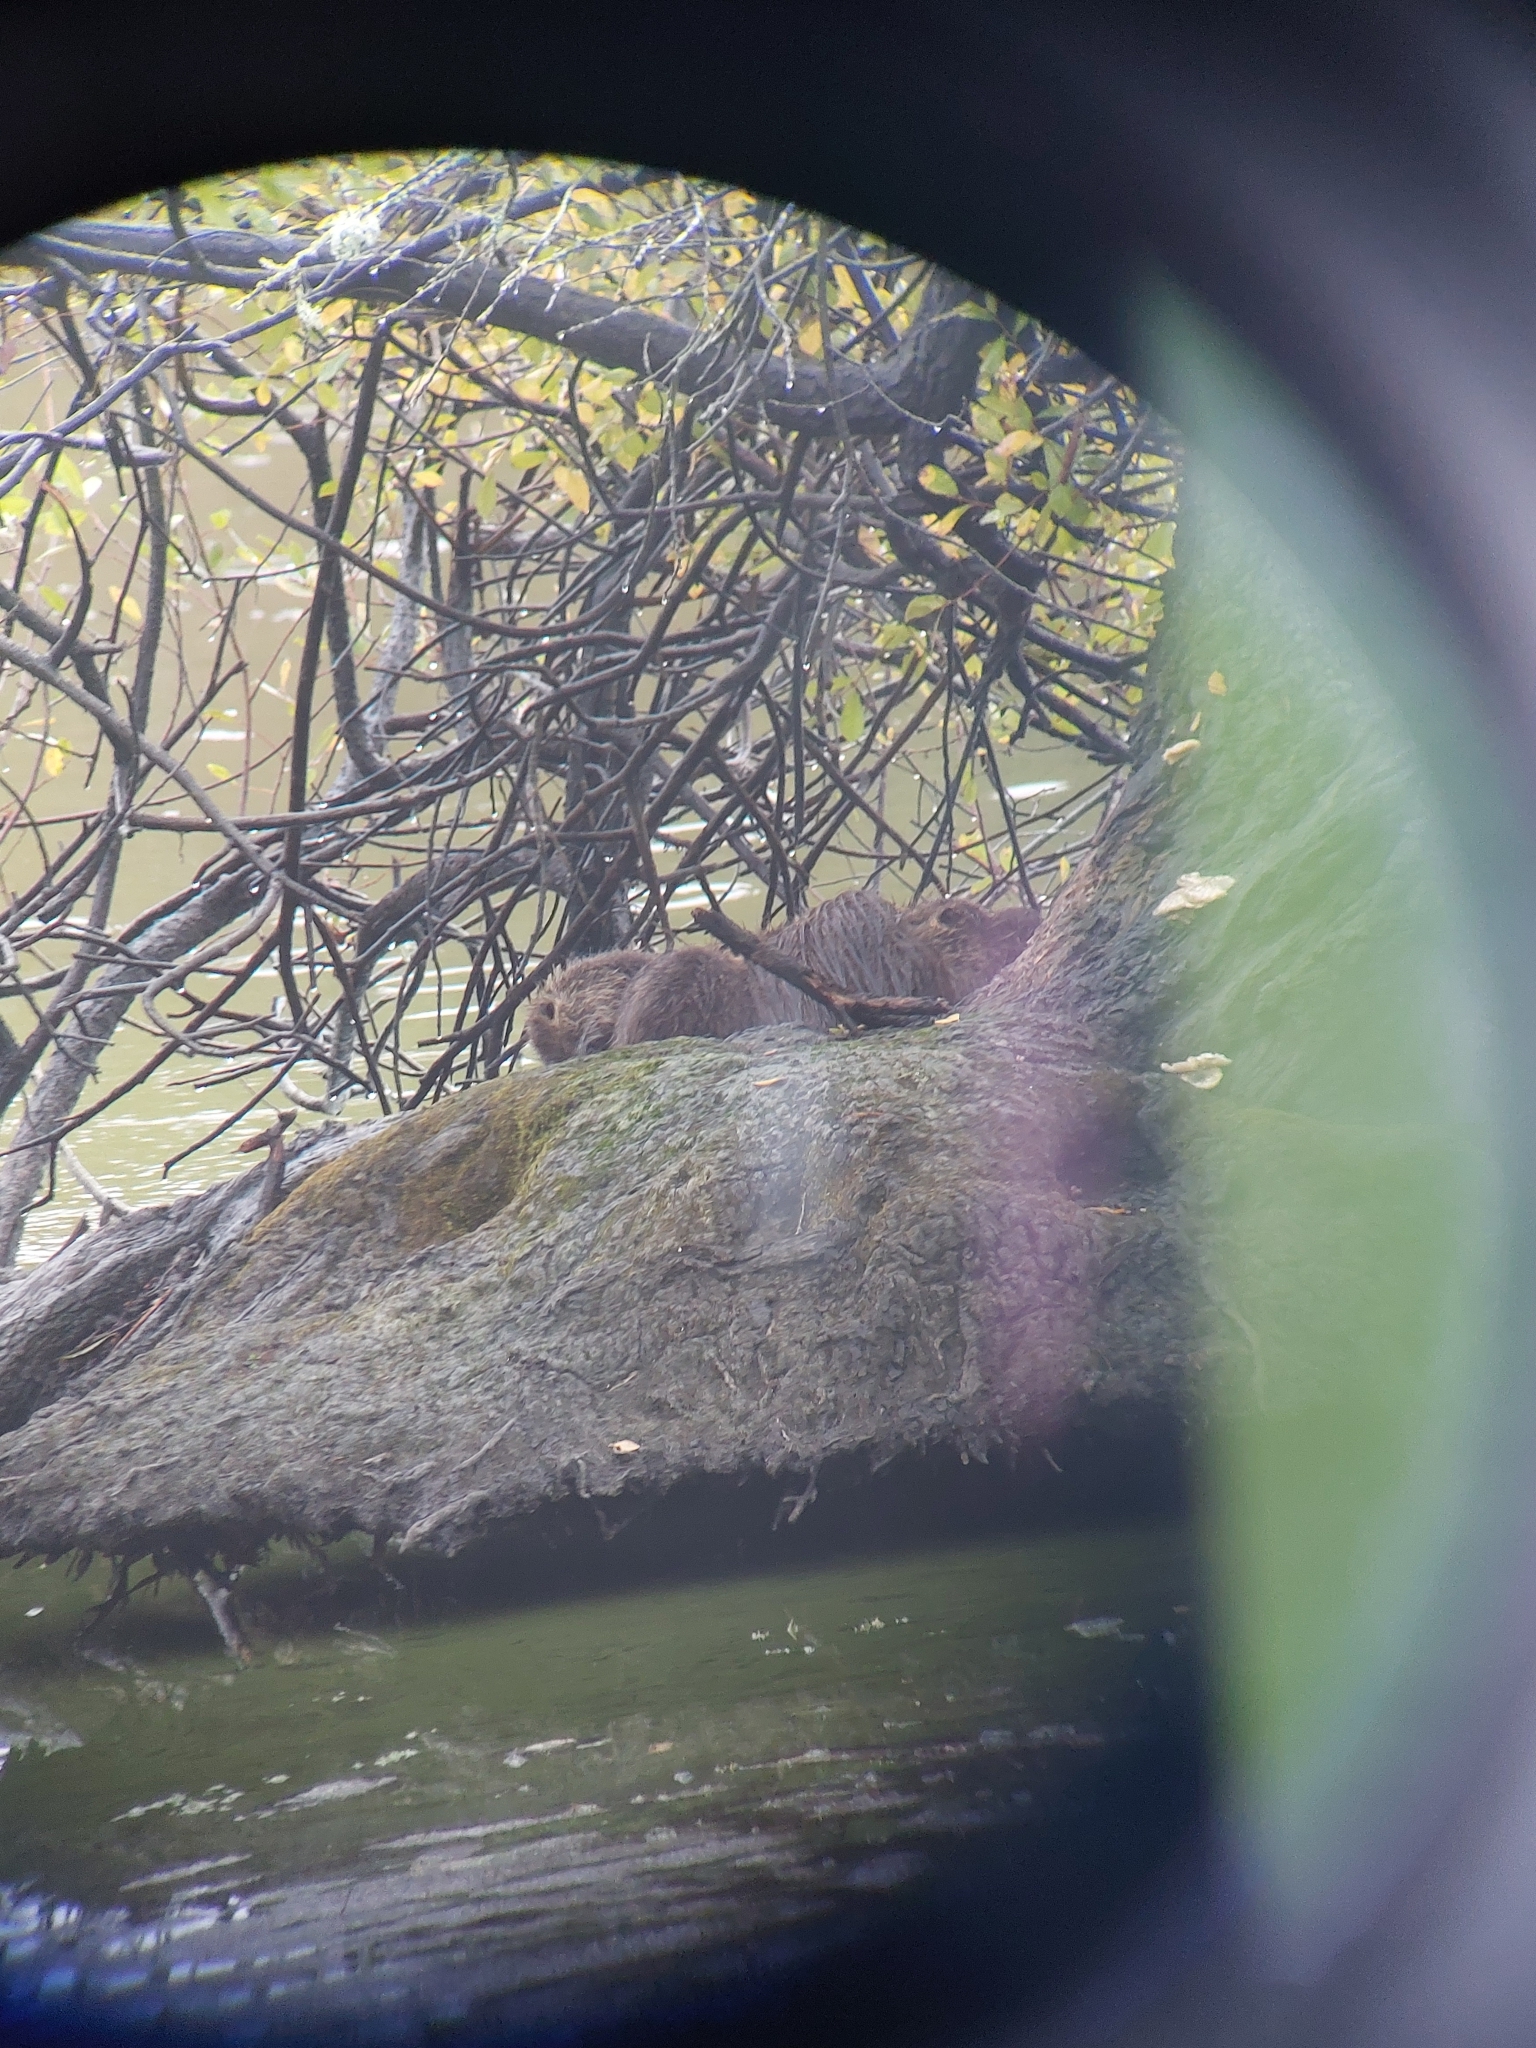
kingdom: Animalia
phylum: Chordata
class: Mammalia
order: Rodentia
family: Myocastoridae
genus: Myocastor
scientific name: Myocastor coypus
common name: Coypu
